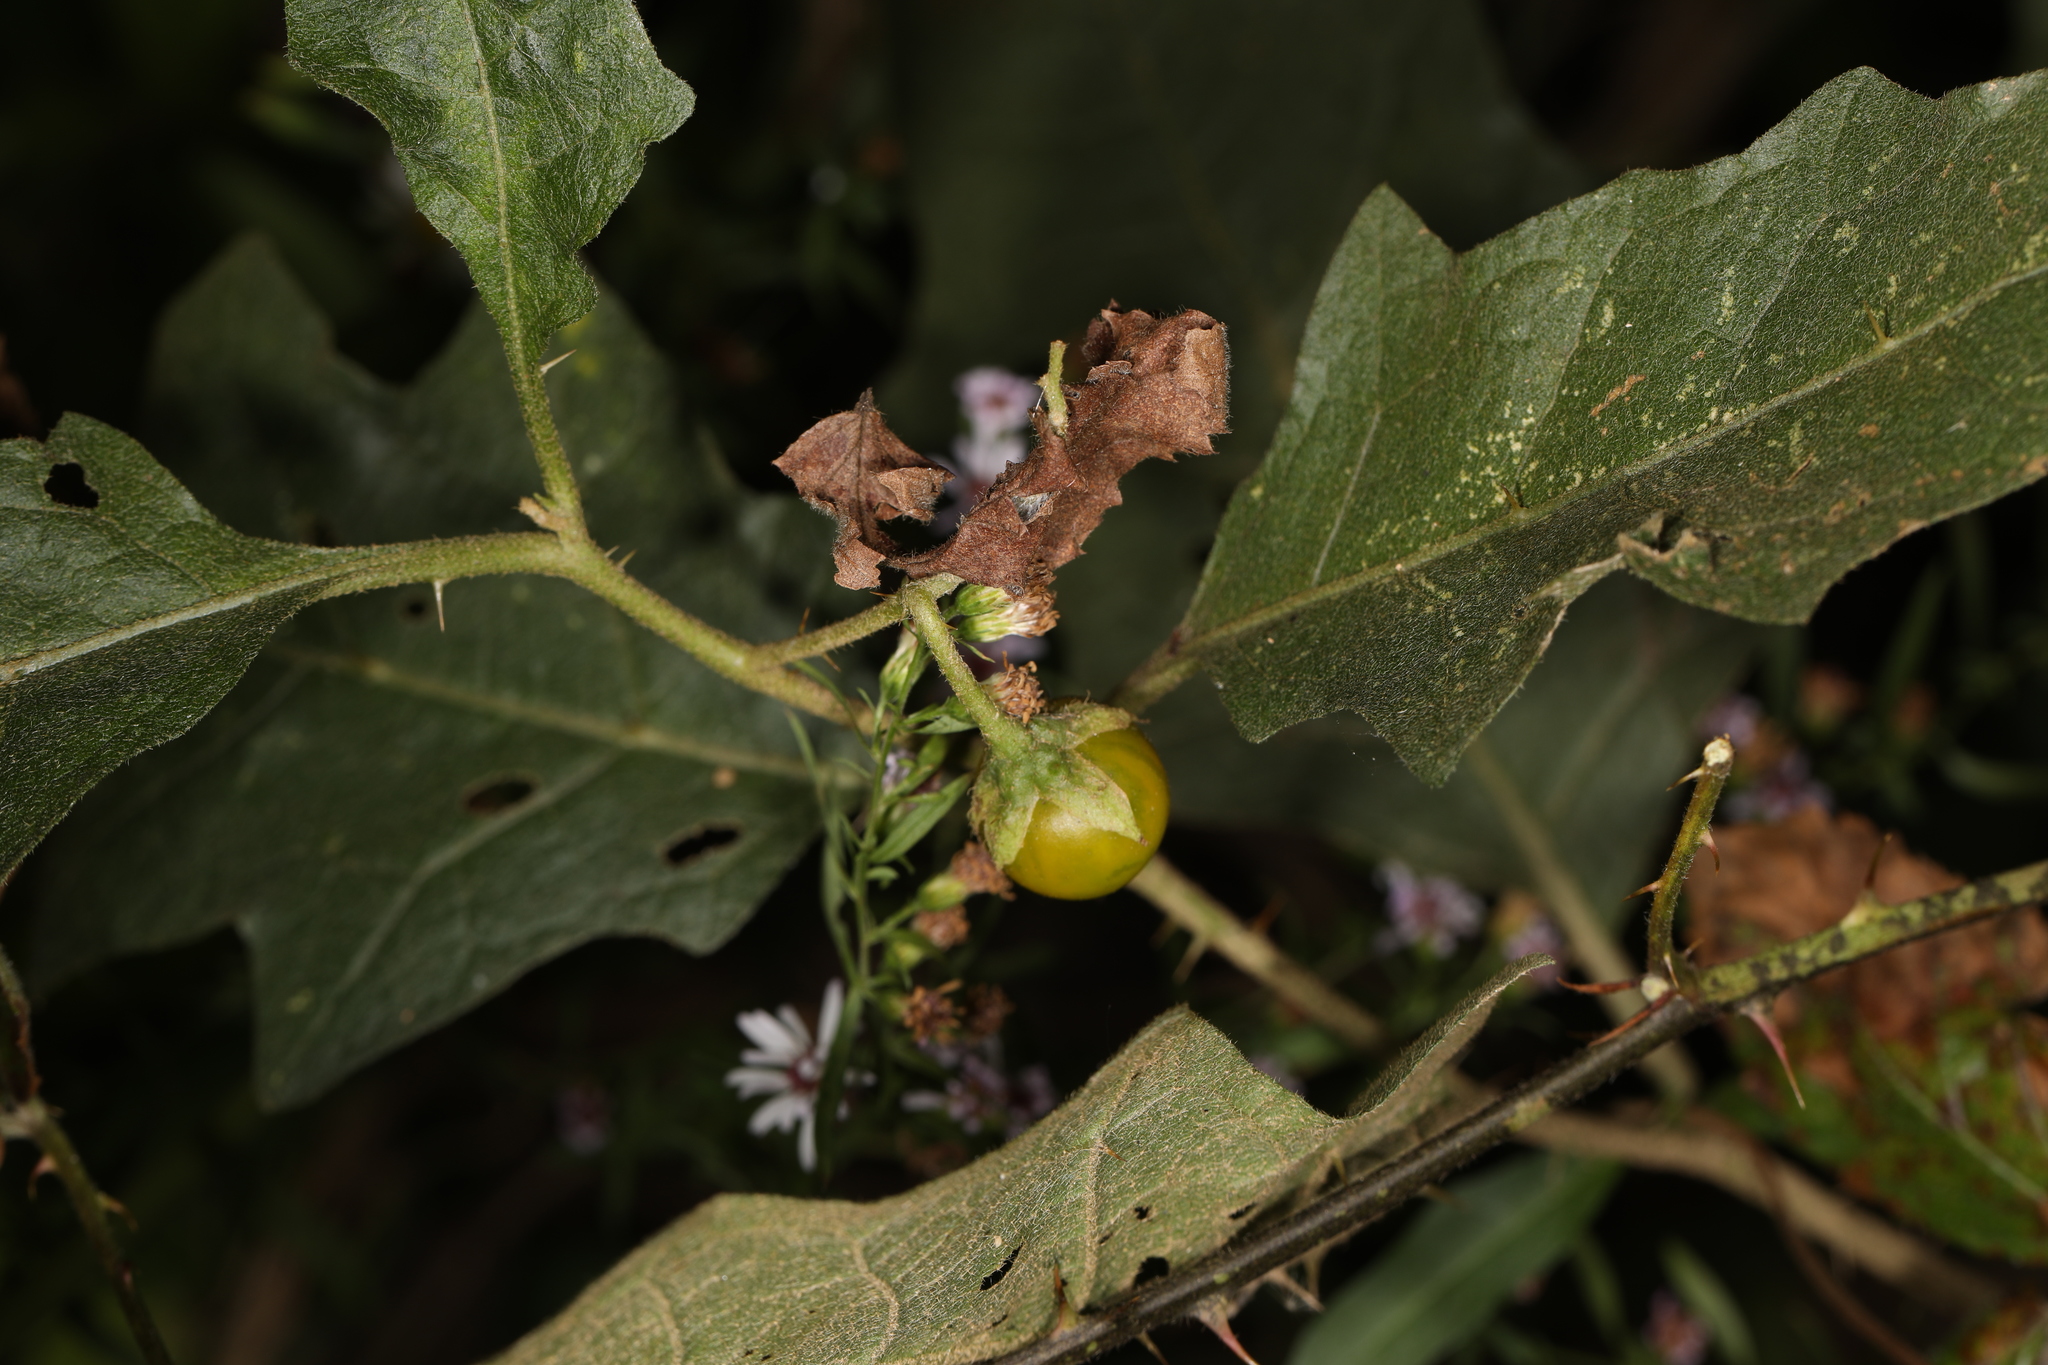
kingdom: Plantae
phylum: Tracheophyta
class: Magnoliopsida
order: Solanales
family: Solanaceae
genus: Solanum
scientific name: Solanum carolinense
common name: Horse-nettle
